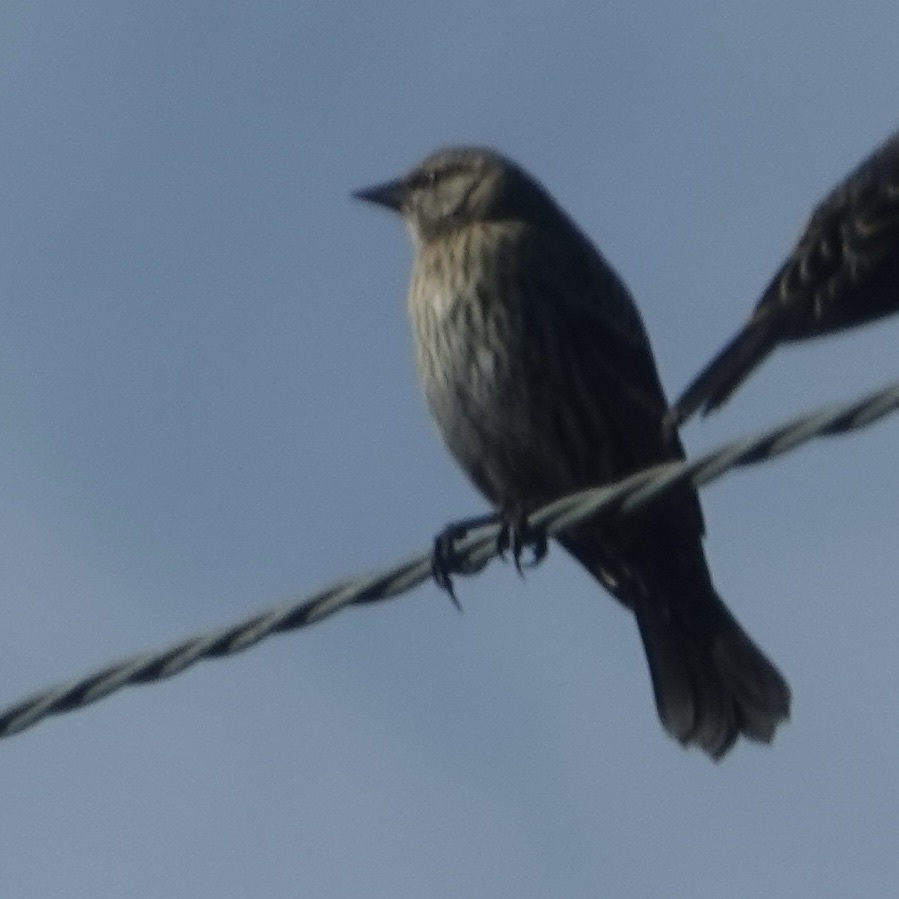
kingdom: Animalia
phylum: Chordata
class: Aves
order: Passeriformes
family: Icteridae
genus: Agelaius
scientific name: Agelaius phoeniceus
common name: Red-winged blackbird
